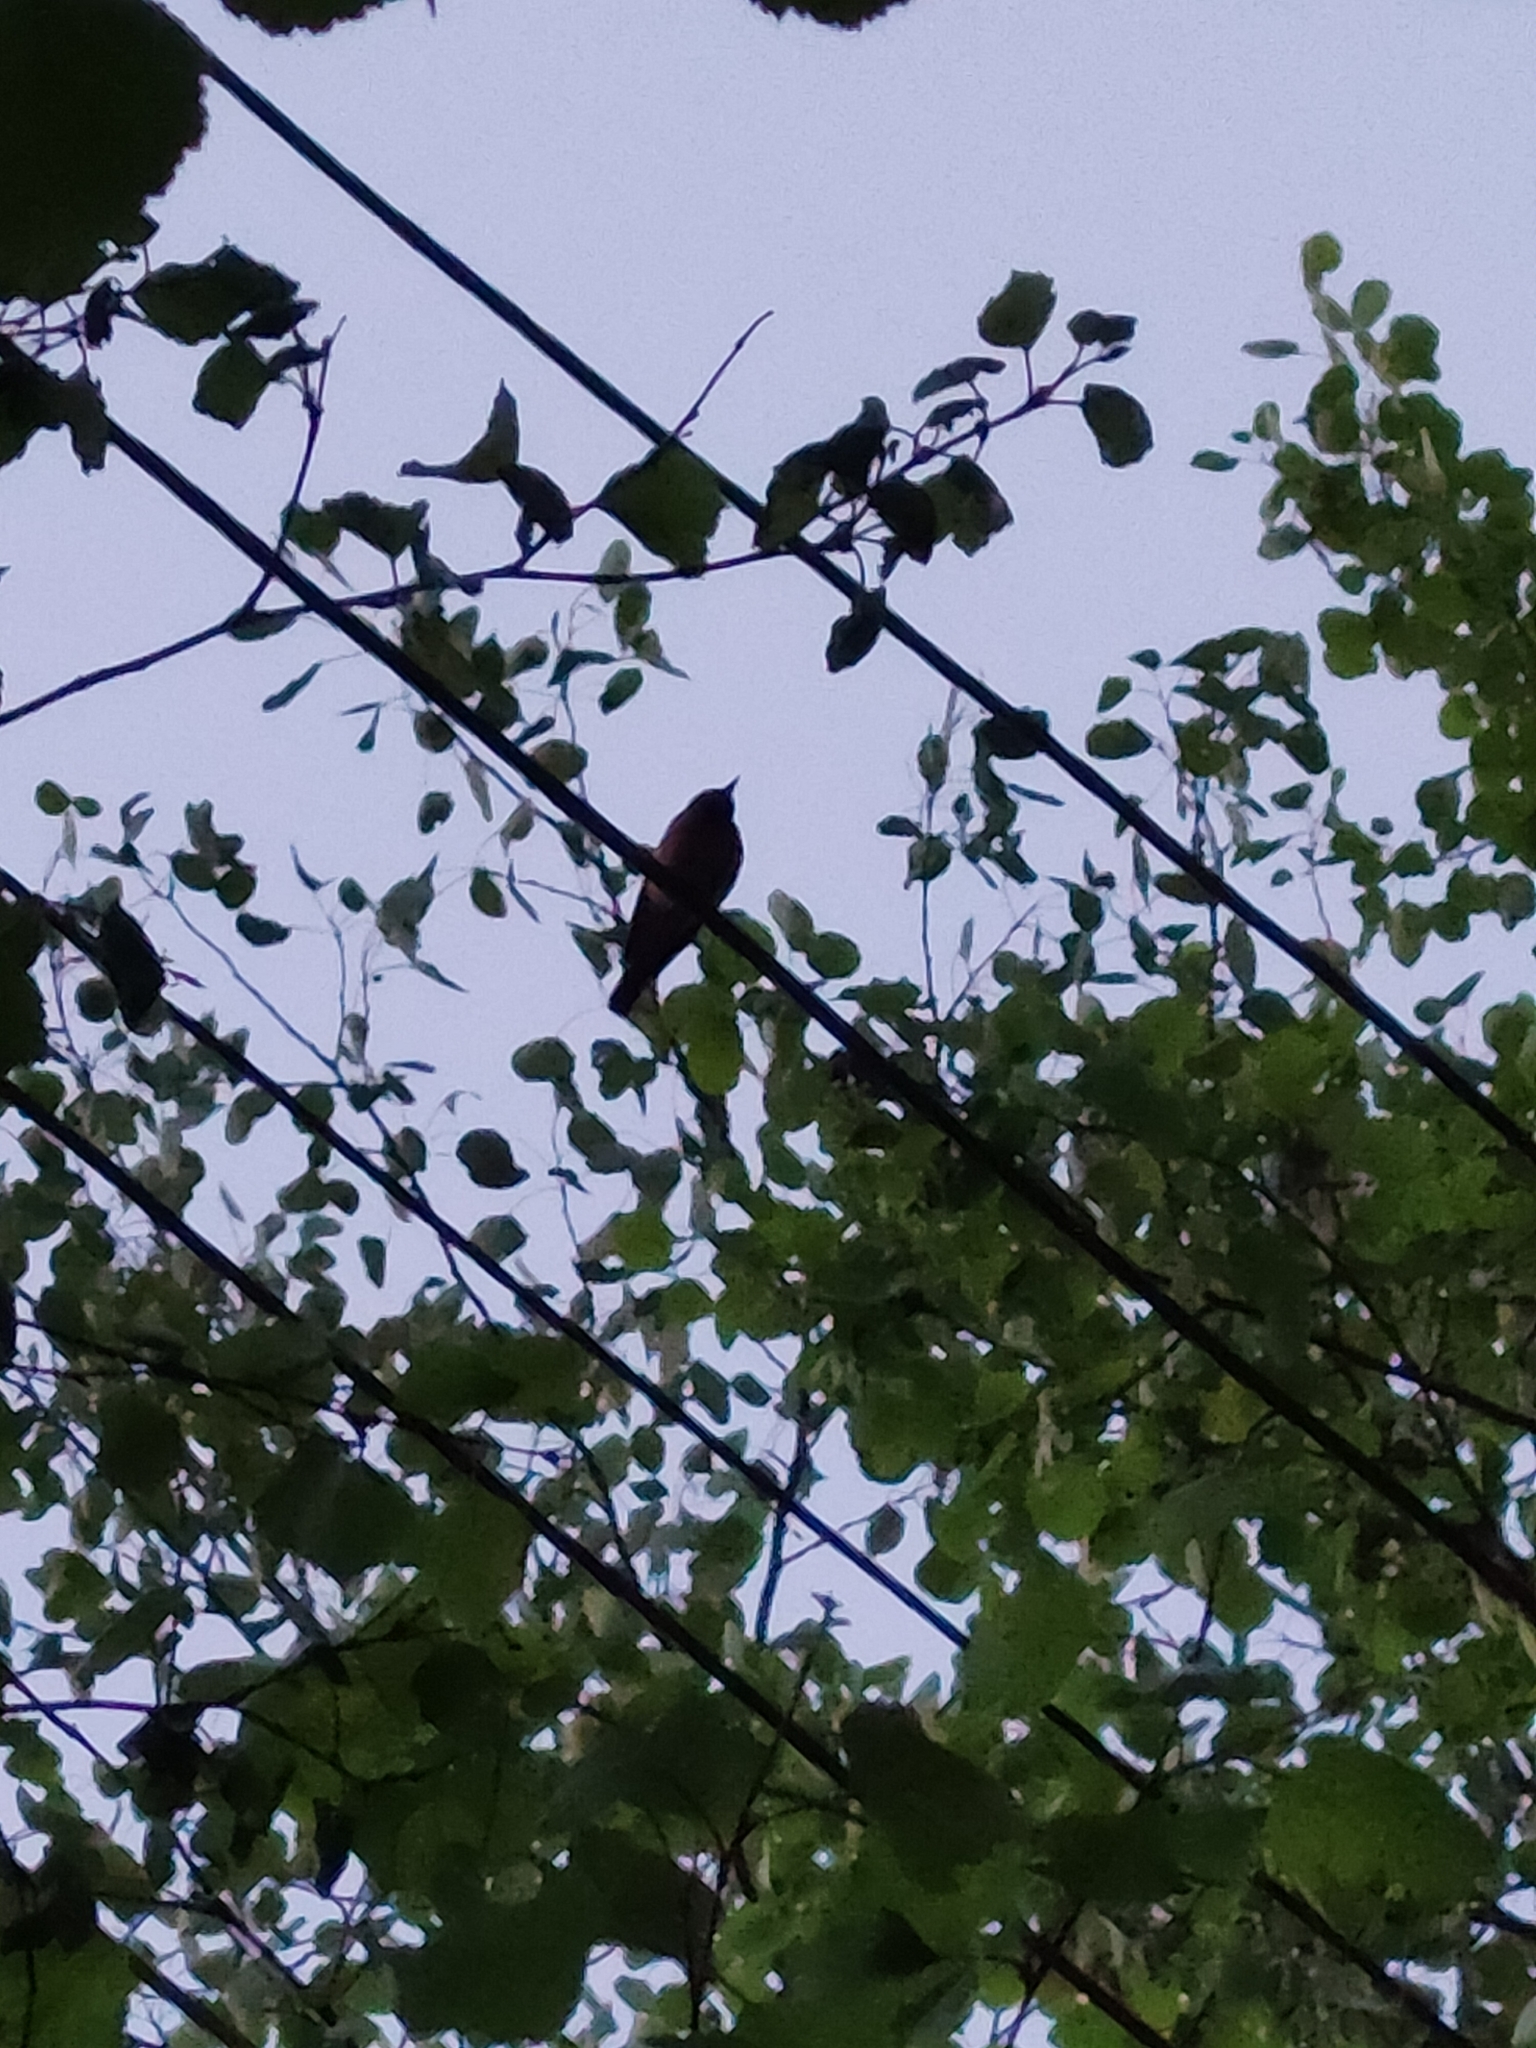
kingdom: Animalia
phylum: Chordata
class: Aves
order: Passeriformes
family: Muscicapidae
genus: Phoenicurus
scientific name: Phoenicurus phoenicurus
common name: Common redstart
